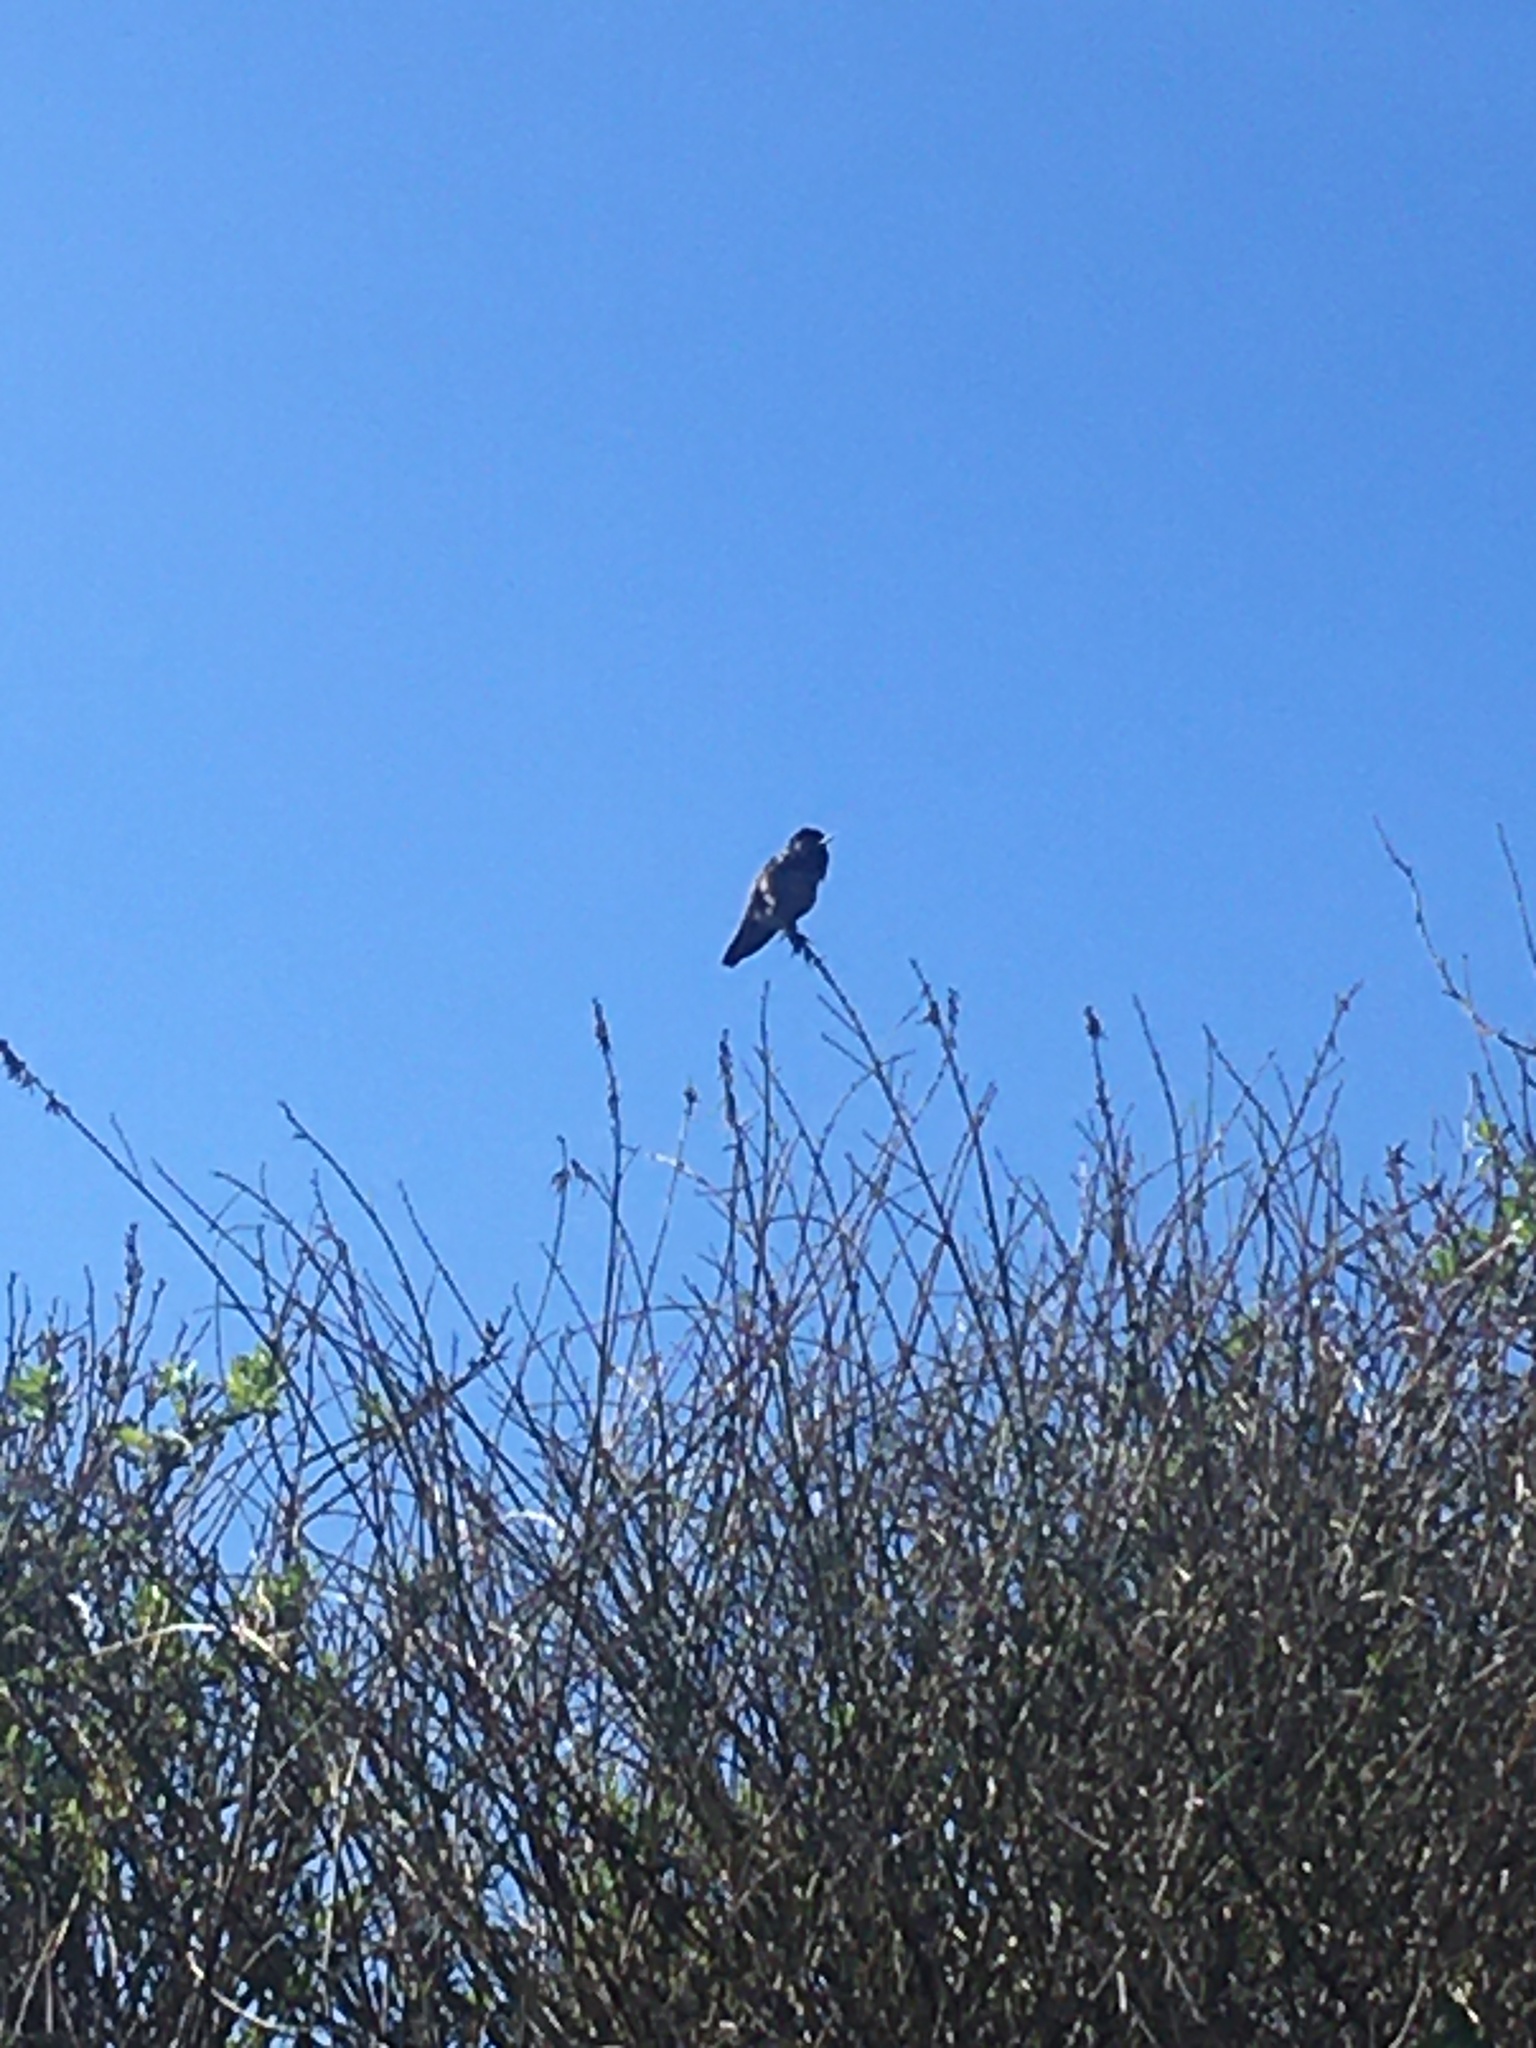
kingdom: Animalia
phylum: Chordata
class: Aves
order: Apodiformes
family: Trochilidae
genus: Calypte
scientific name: Calypte anna
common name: Anna's hummingbird
